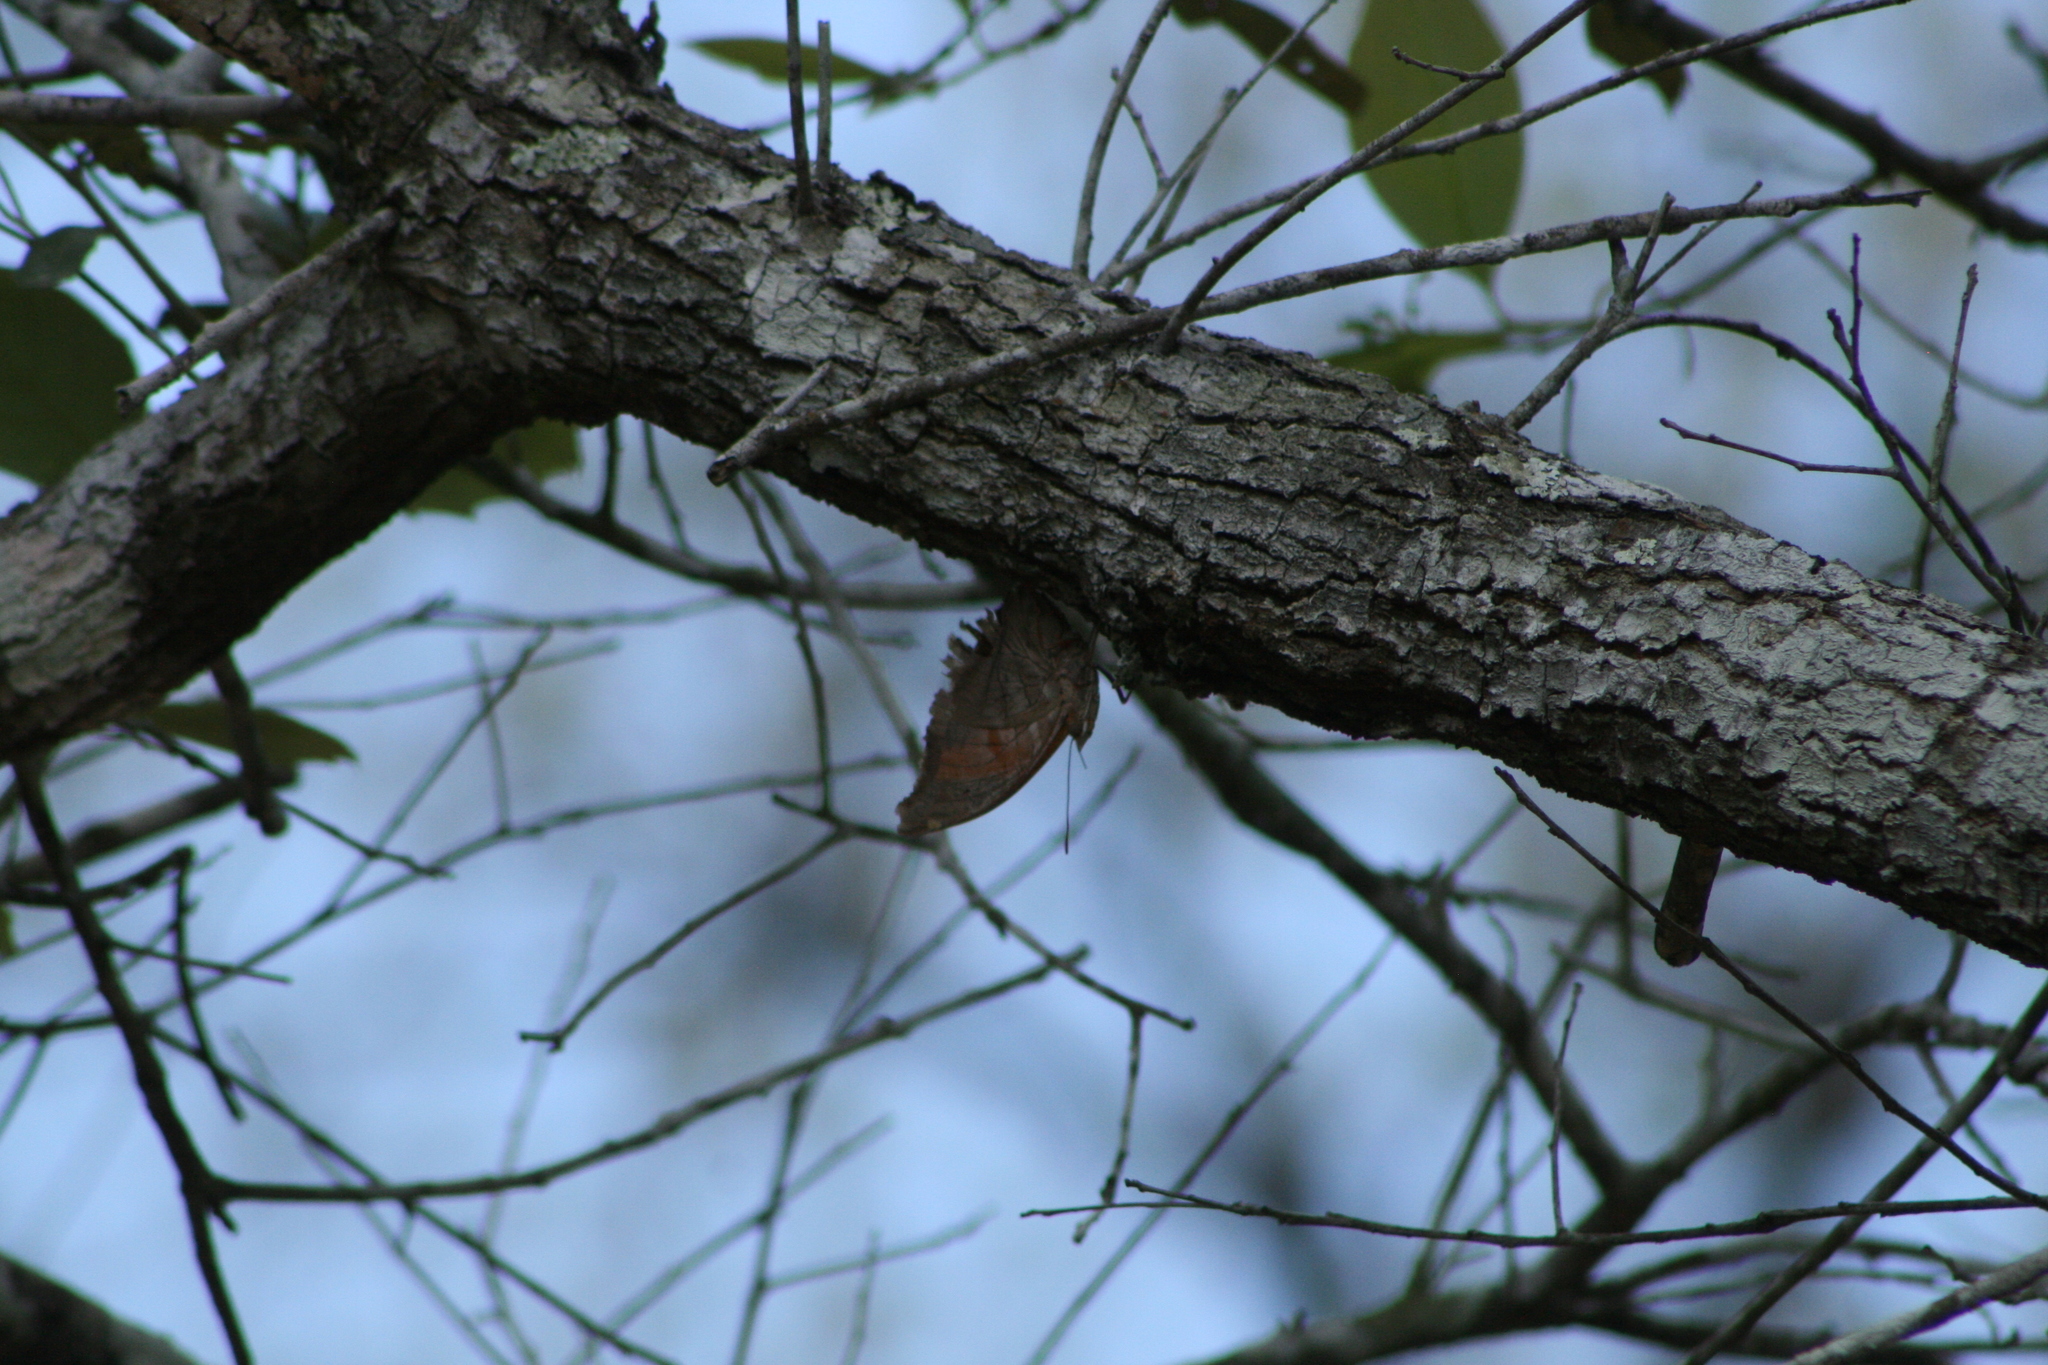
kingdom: Animalia
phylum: Arthropoda
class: Insecta
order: Lepidoptera
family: Nymphalidae
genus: Historis
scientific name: Historis odius
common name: Orion cecropian
